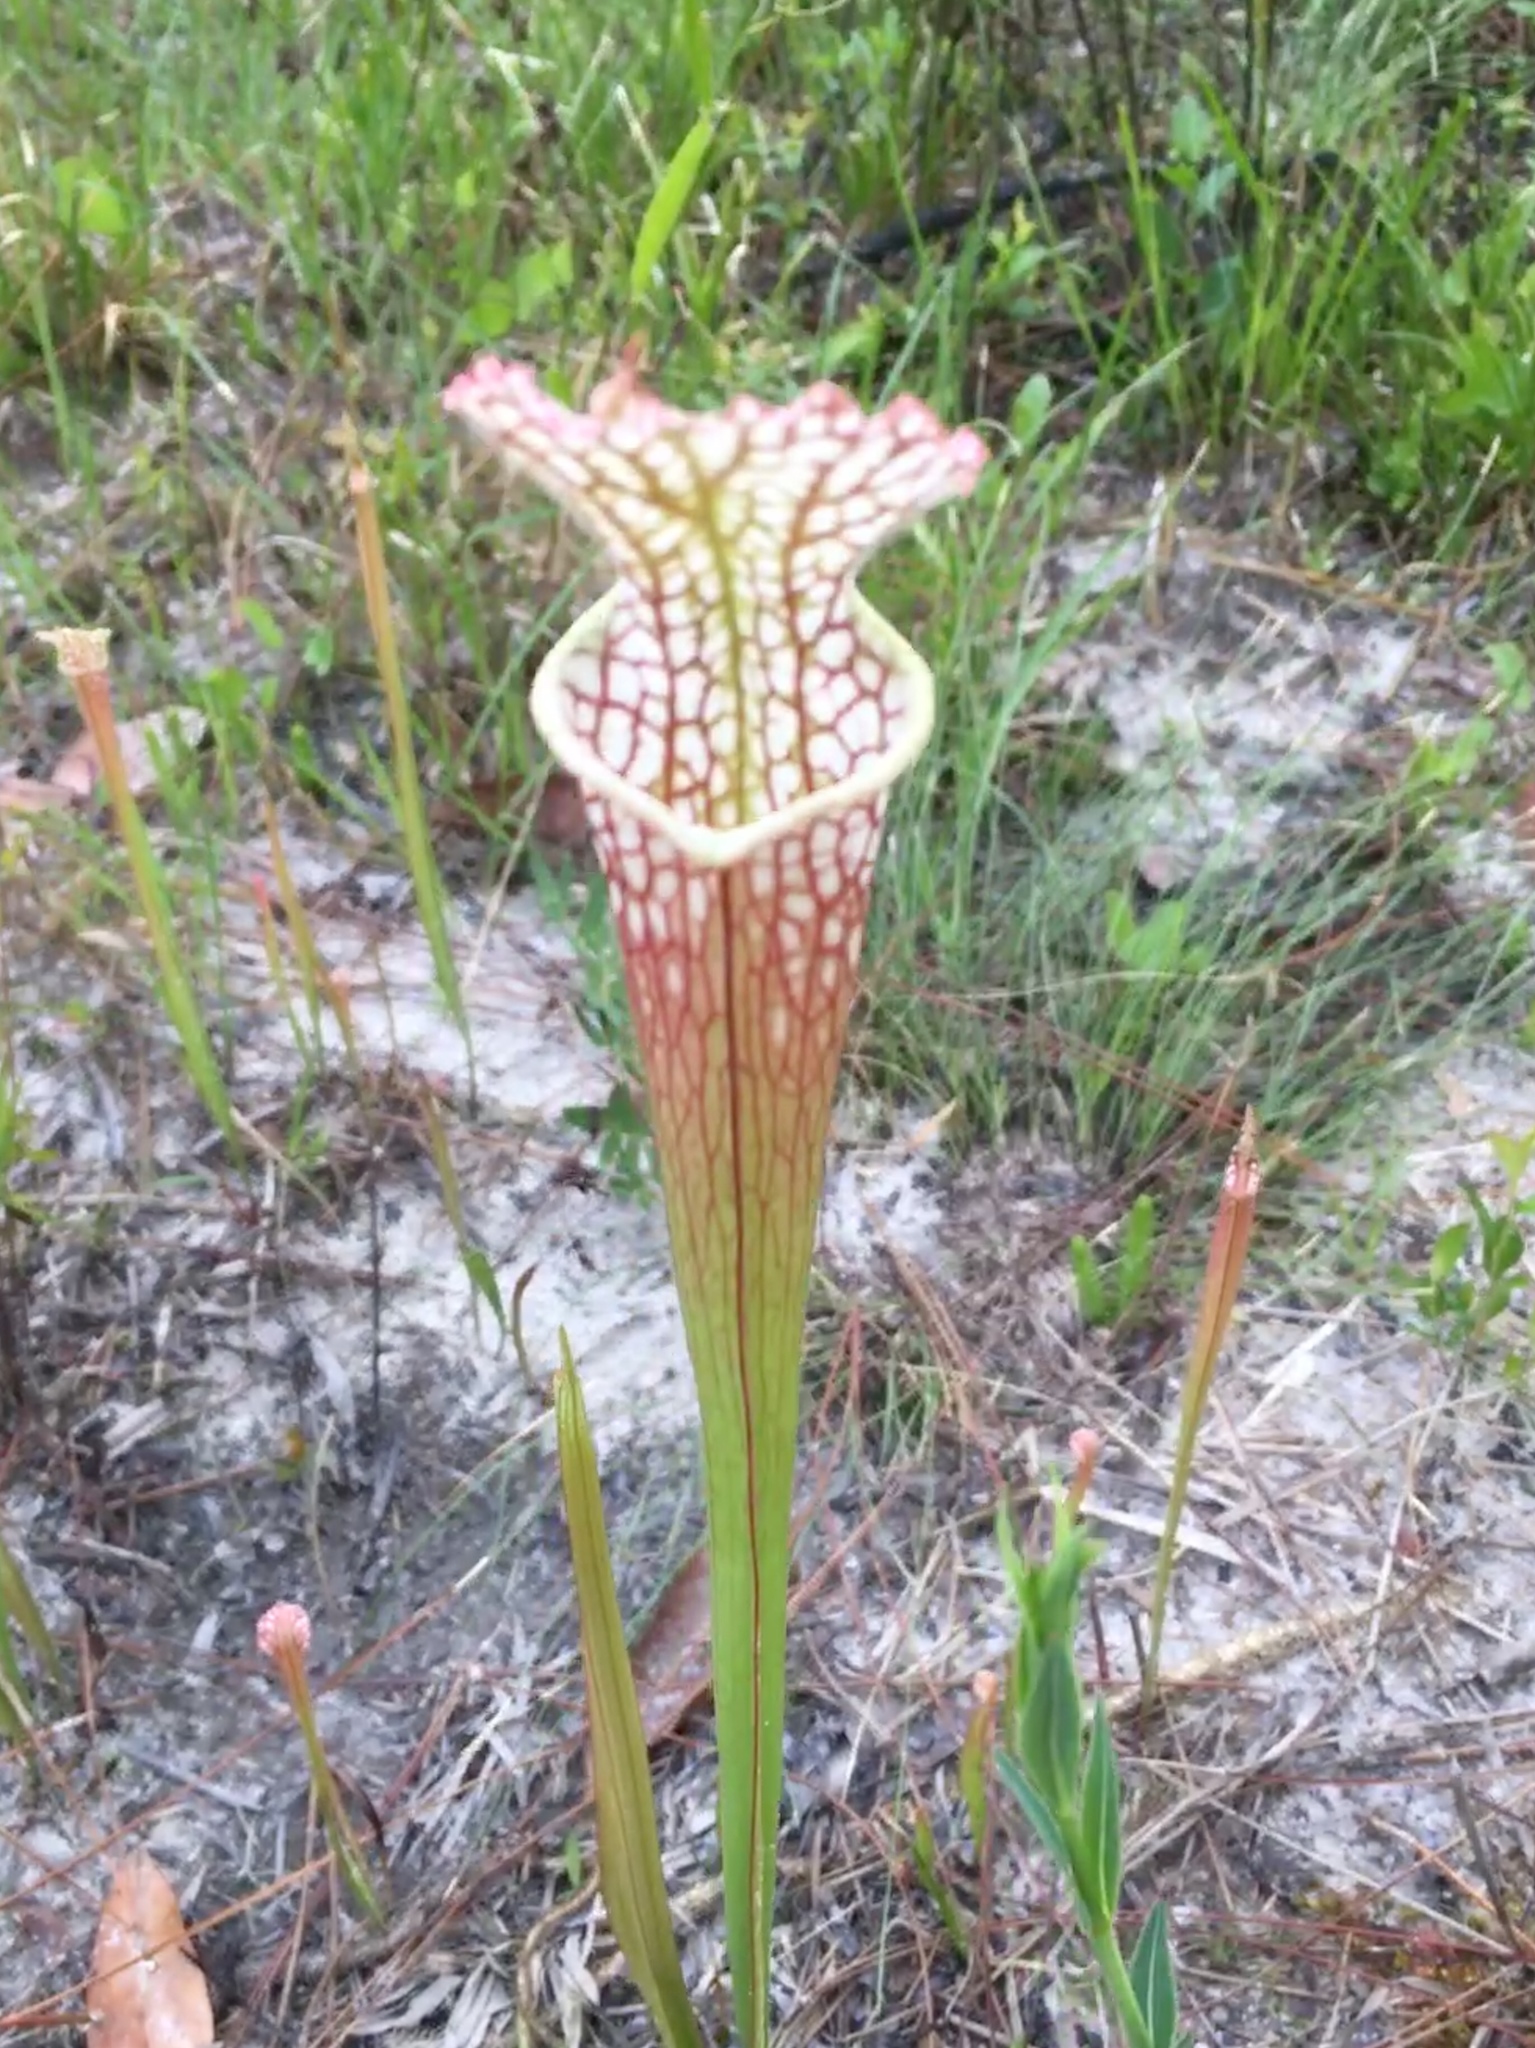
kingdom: Plantae
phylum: Tracheophyta
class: Magnoliopsida
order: Ericales
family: Sarraceniaceae
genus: Sarracenia
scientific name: Sarracenia leucophylla
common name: Purple trumpetleaf
